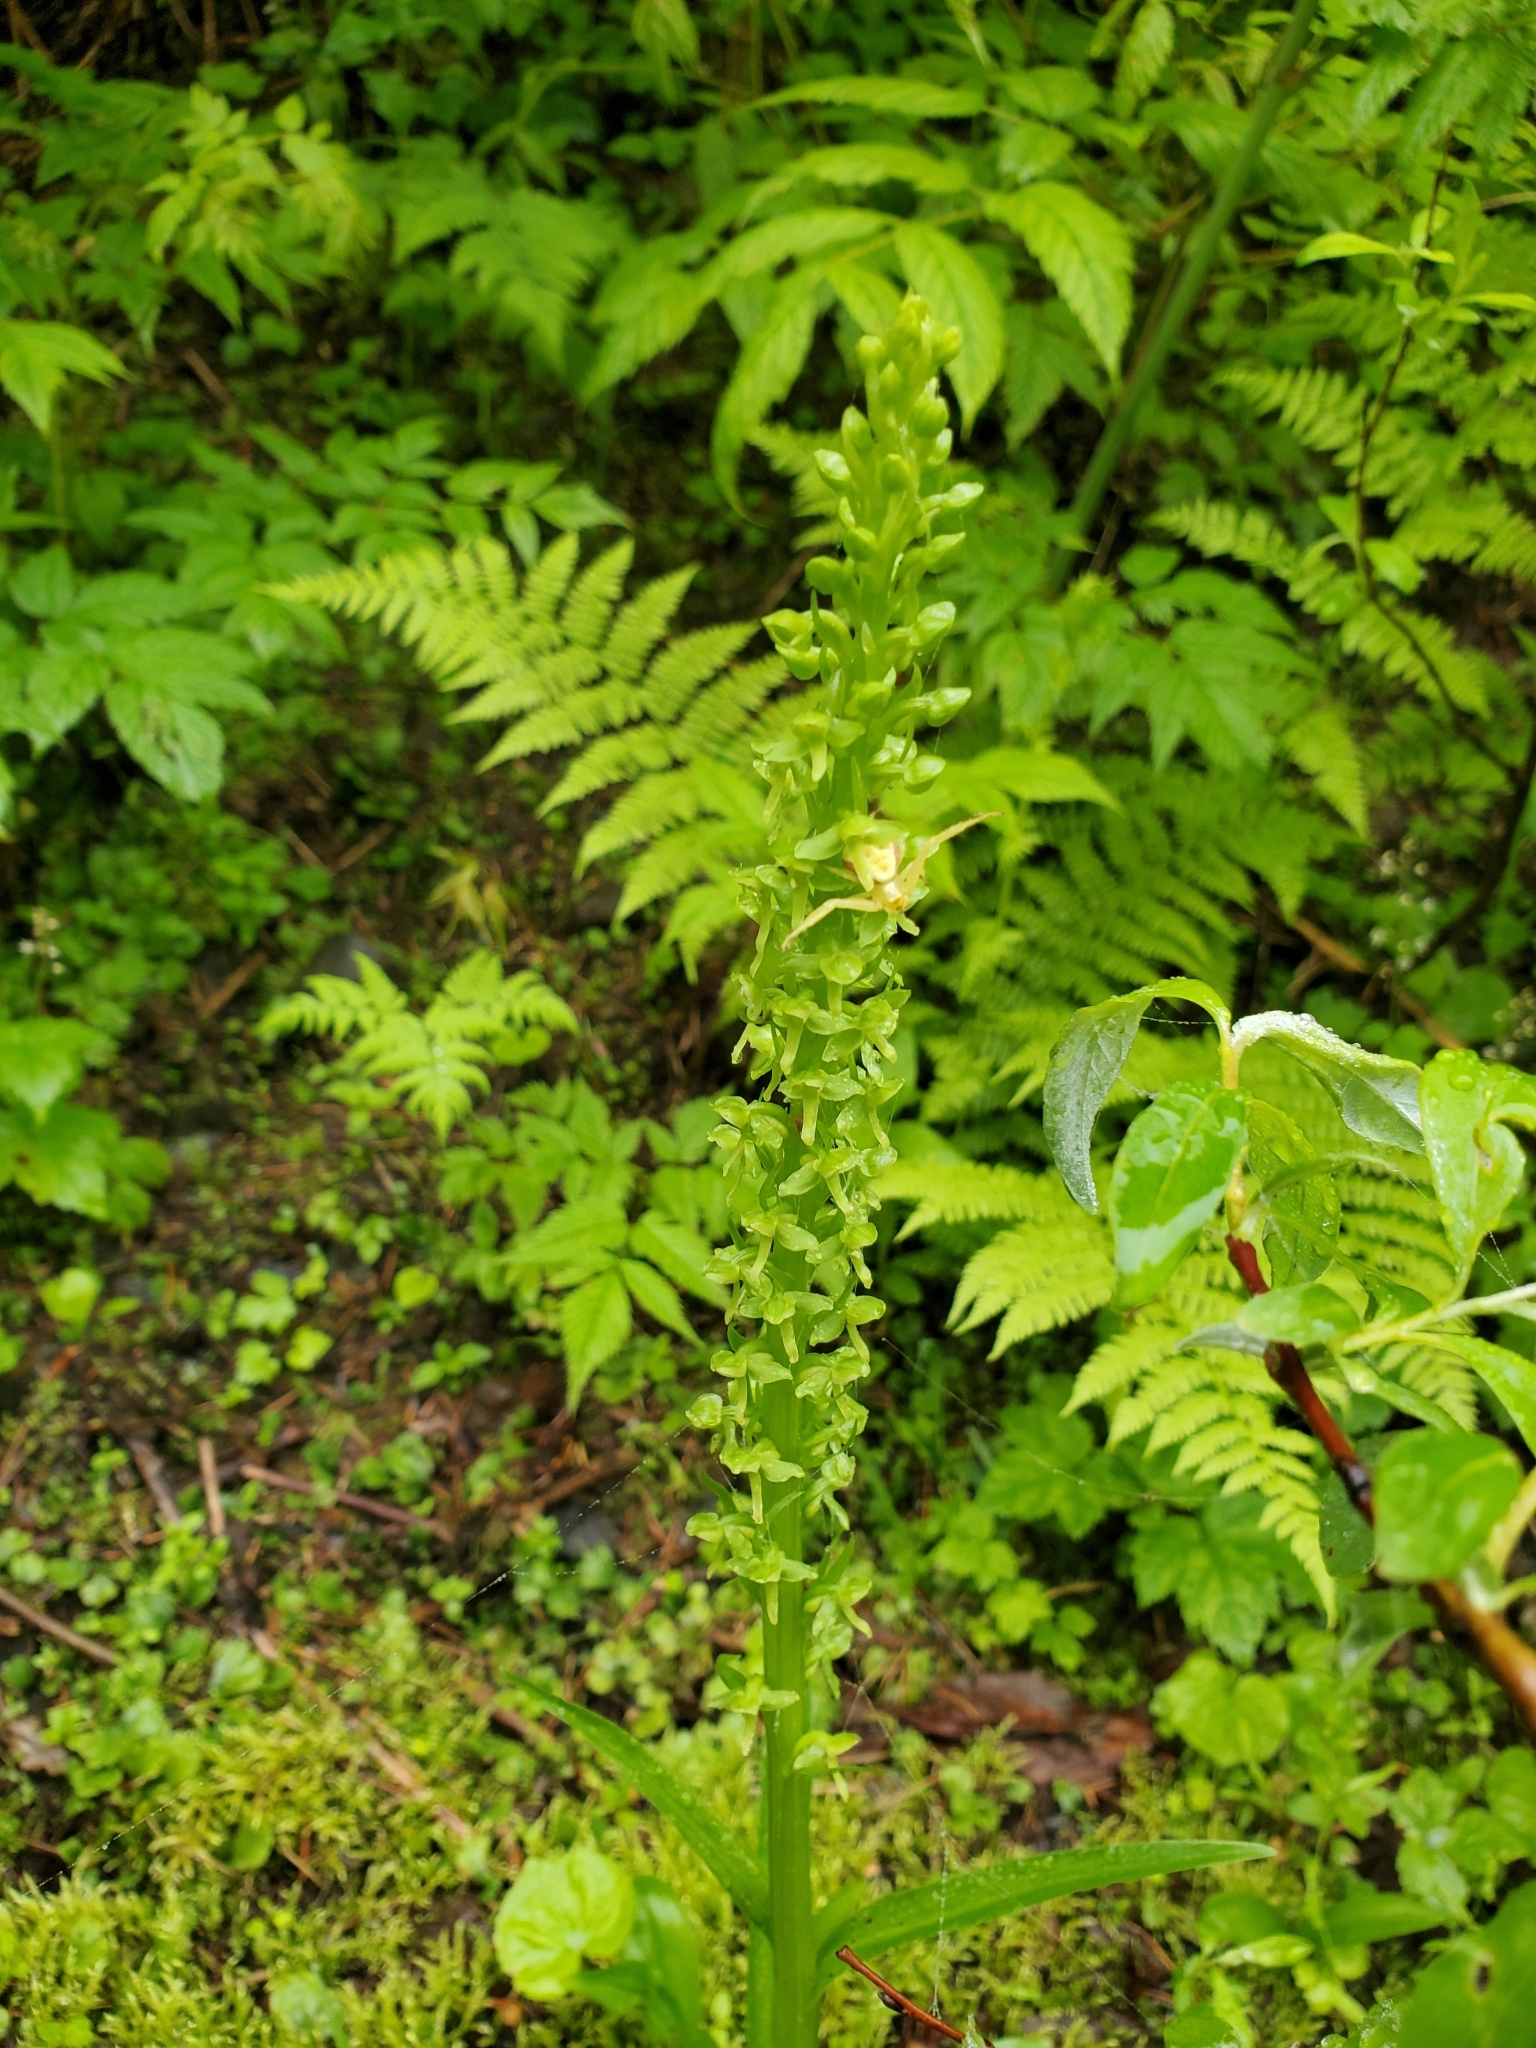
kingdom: Plantae
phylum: Tracheophyta
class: Liliopsida
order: Asparagales
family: Orchidaceae
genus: Platanthera
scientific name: Platanthera stricta
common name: Slender bog orchid
